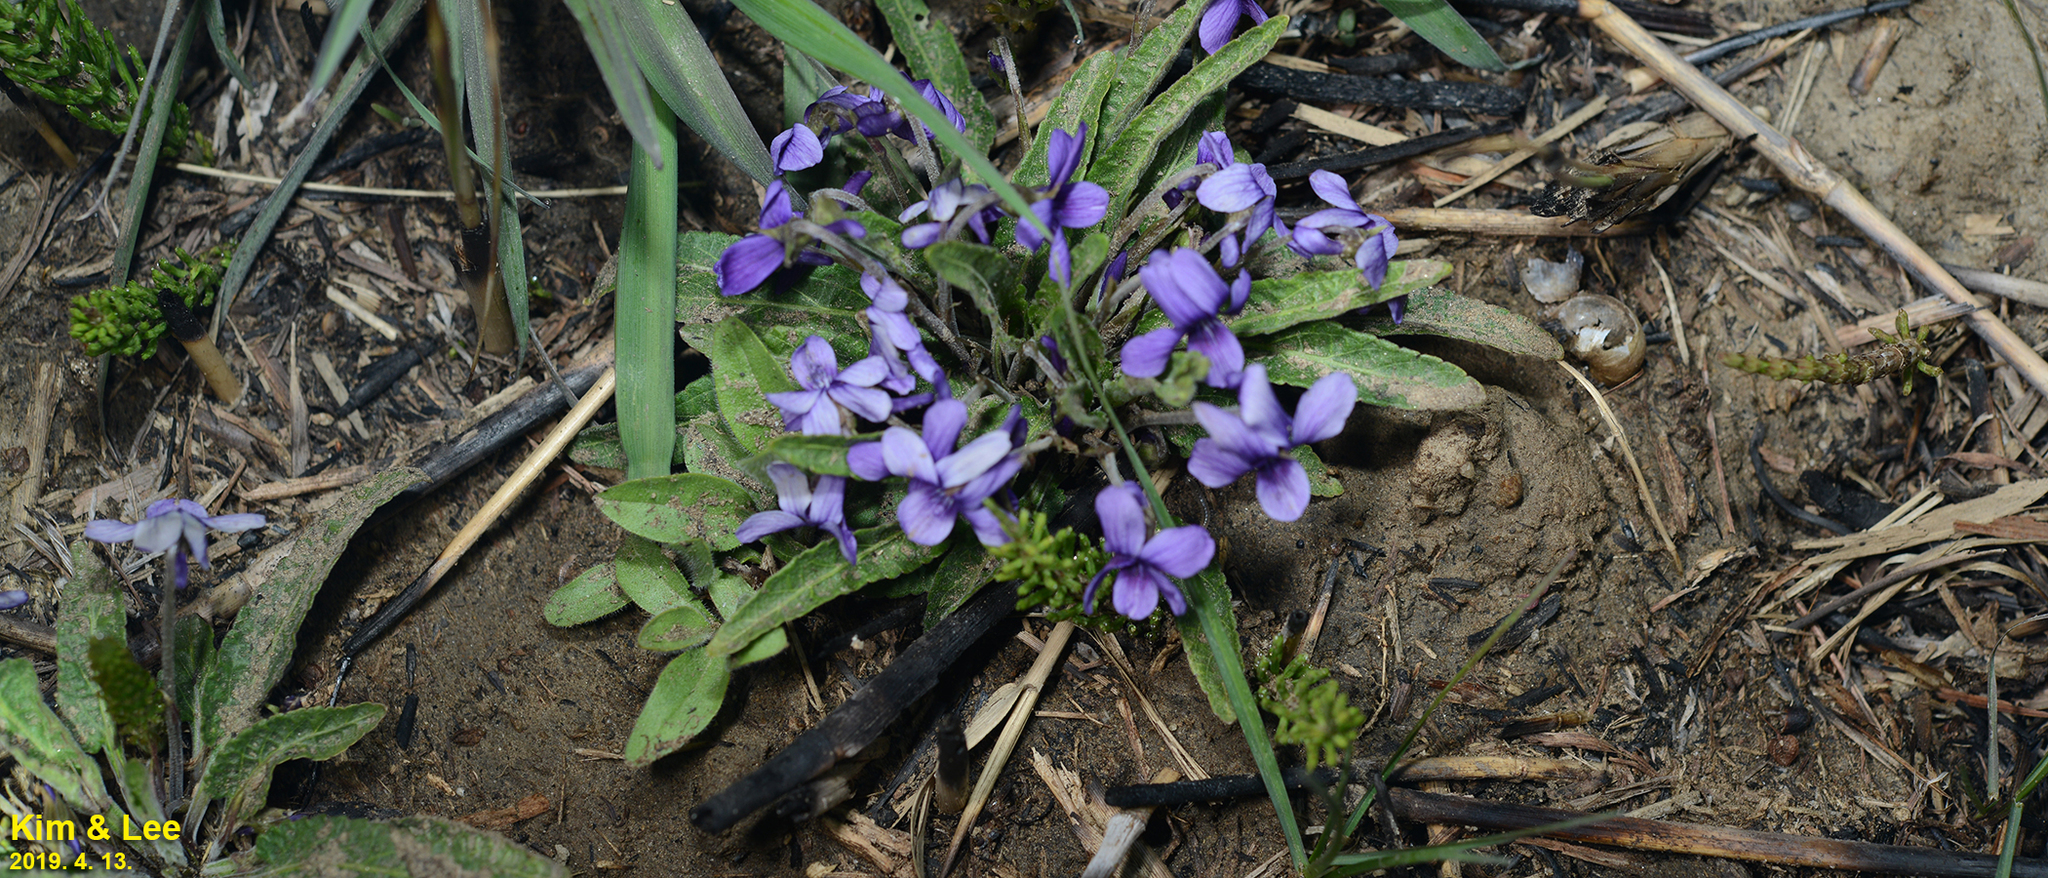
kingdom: Plantae
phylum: Tracheophyta
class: Magnoliopsida
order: Malpighiales
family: Violaceae
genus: Viola
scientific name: Viola philippica
